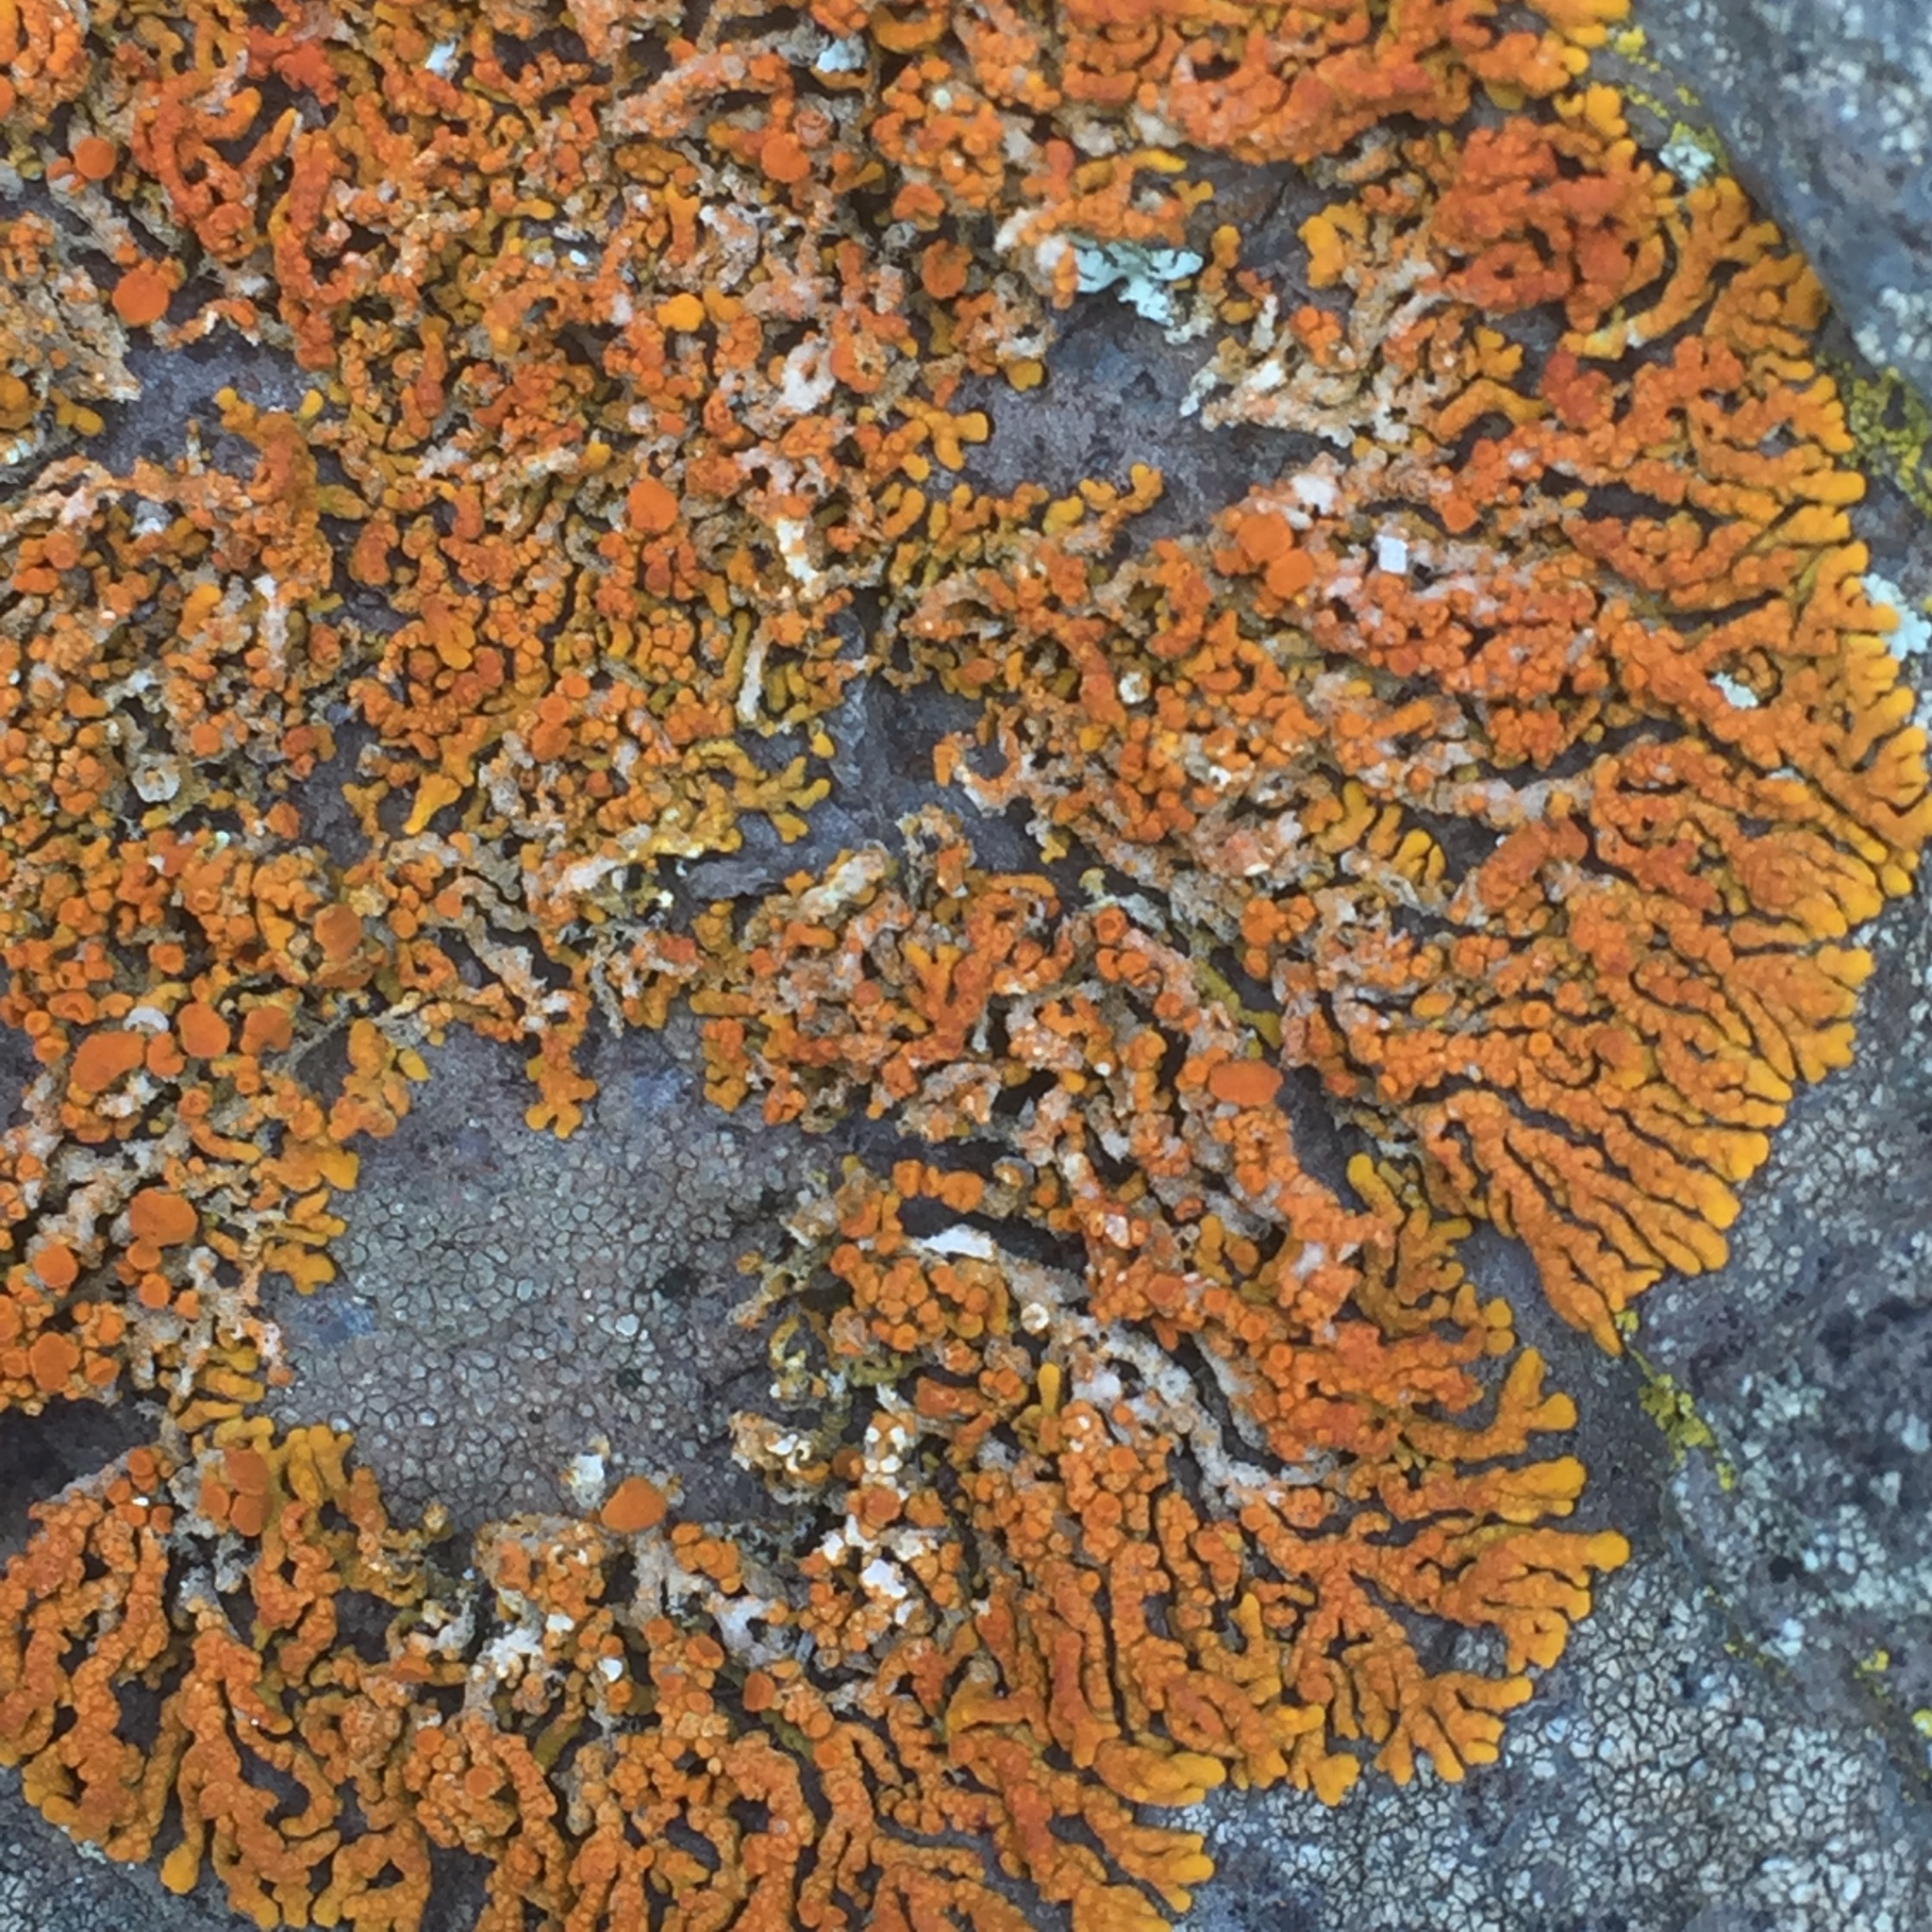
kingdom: Fungi
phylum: Ascomycota
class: Lecanoromycetes
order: Teloschistales
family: Teloschistaceae
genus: Xanthoria
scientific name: Xanthoria elegans
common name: Elegant sunburst lichen
